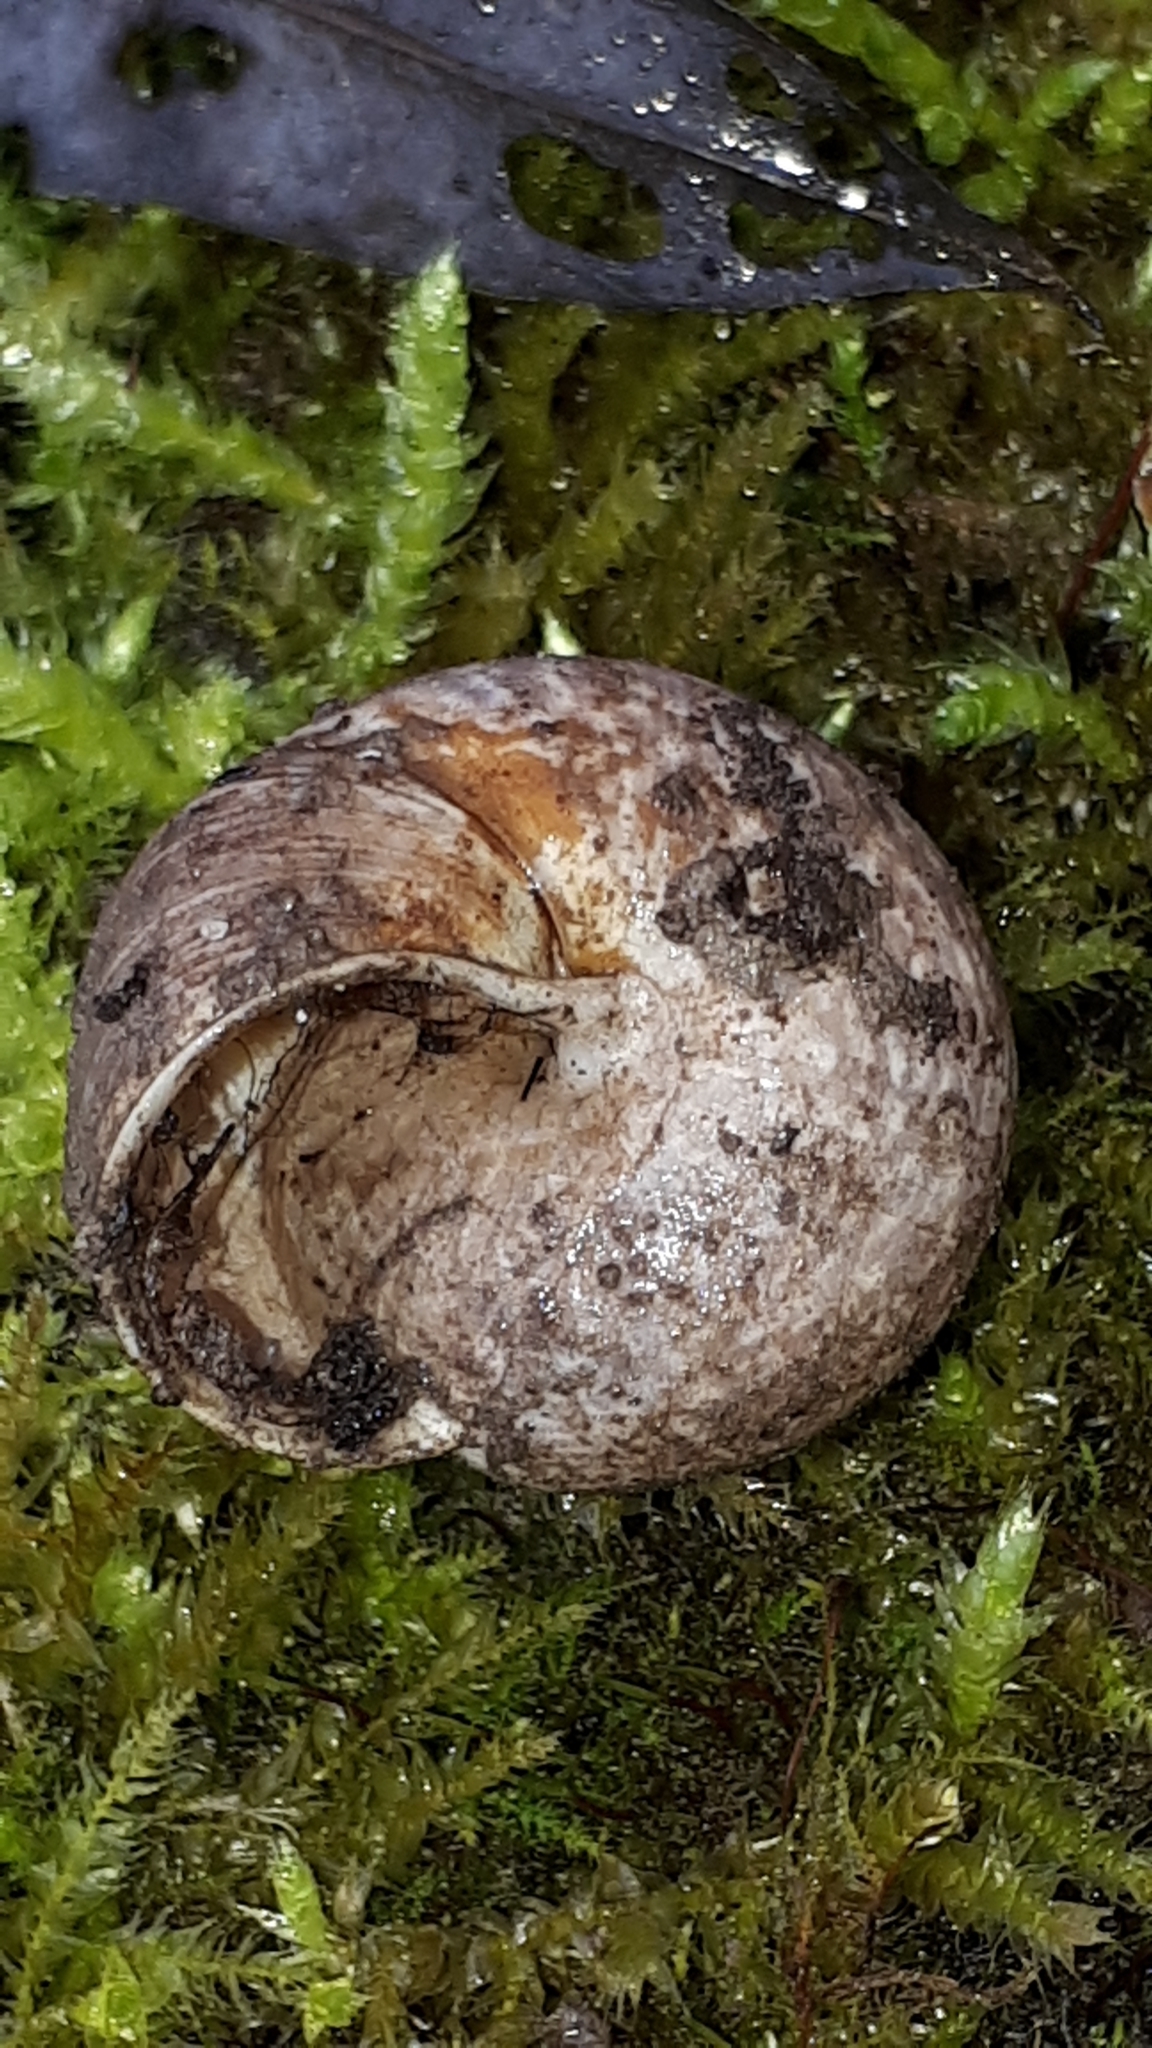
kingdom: Animalia
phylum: Mollusca
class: Gastropoda
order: Stylommatophora
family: Helicidae
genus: Arianta
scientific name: Arianta arbustorum
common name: Copse snail
